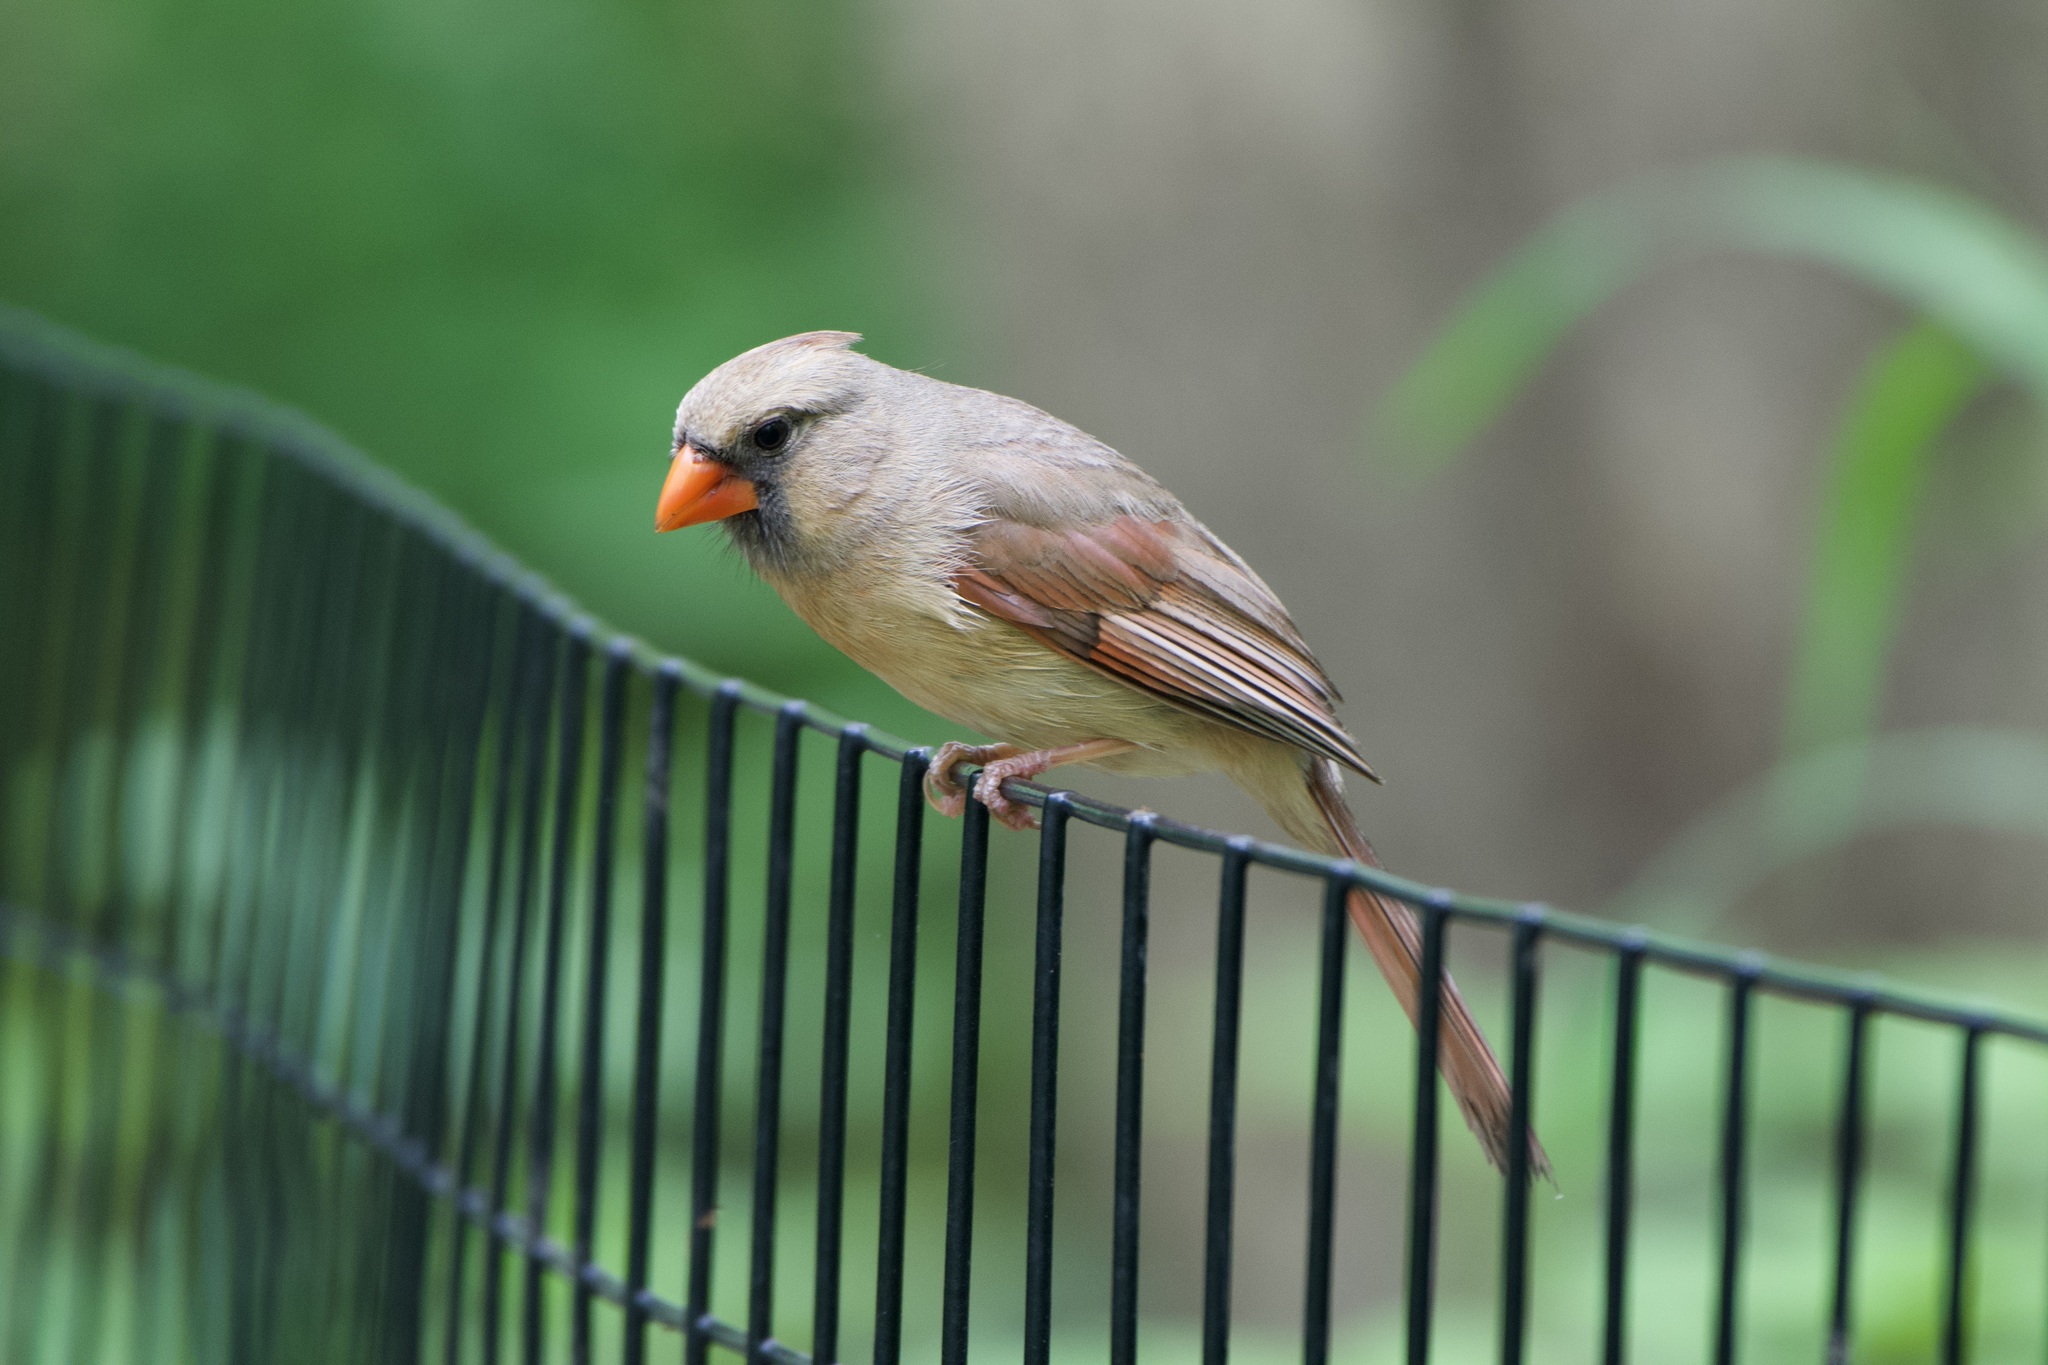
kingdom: Animalia
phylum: Chordata
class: Aves
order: Passeriformes
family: Cardinalidae
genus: Cardinalis
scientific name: Cardinalis cardinalis
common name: Northern cardinal
